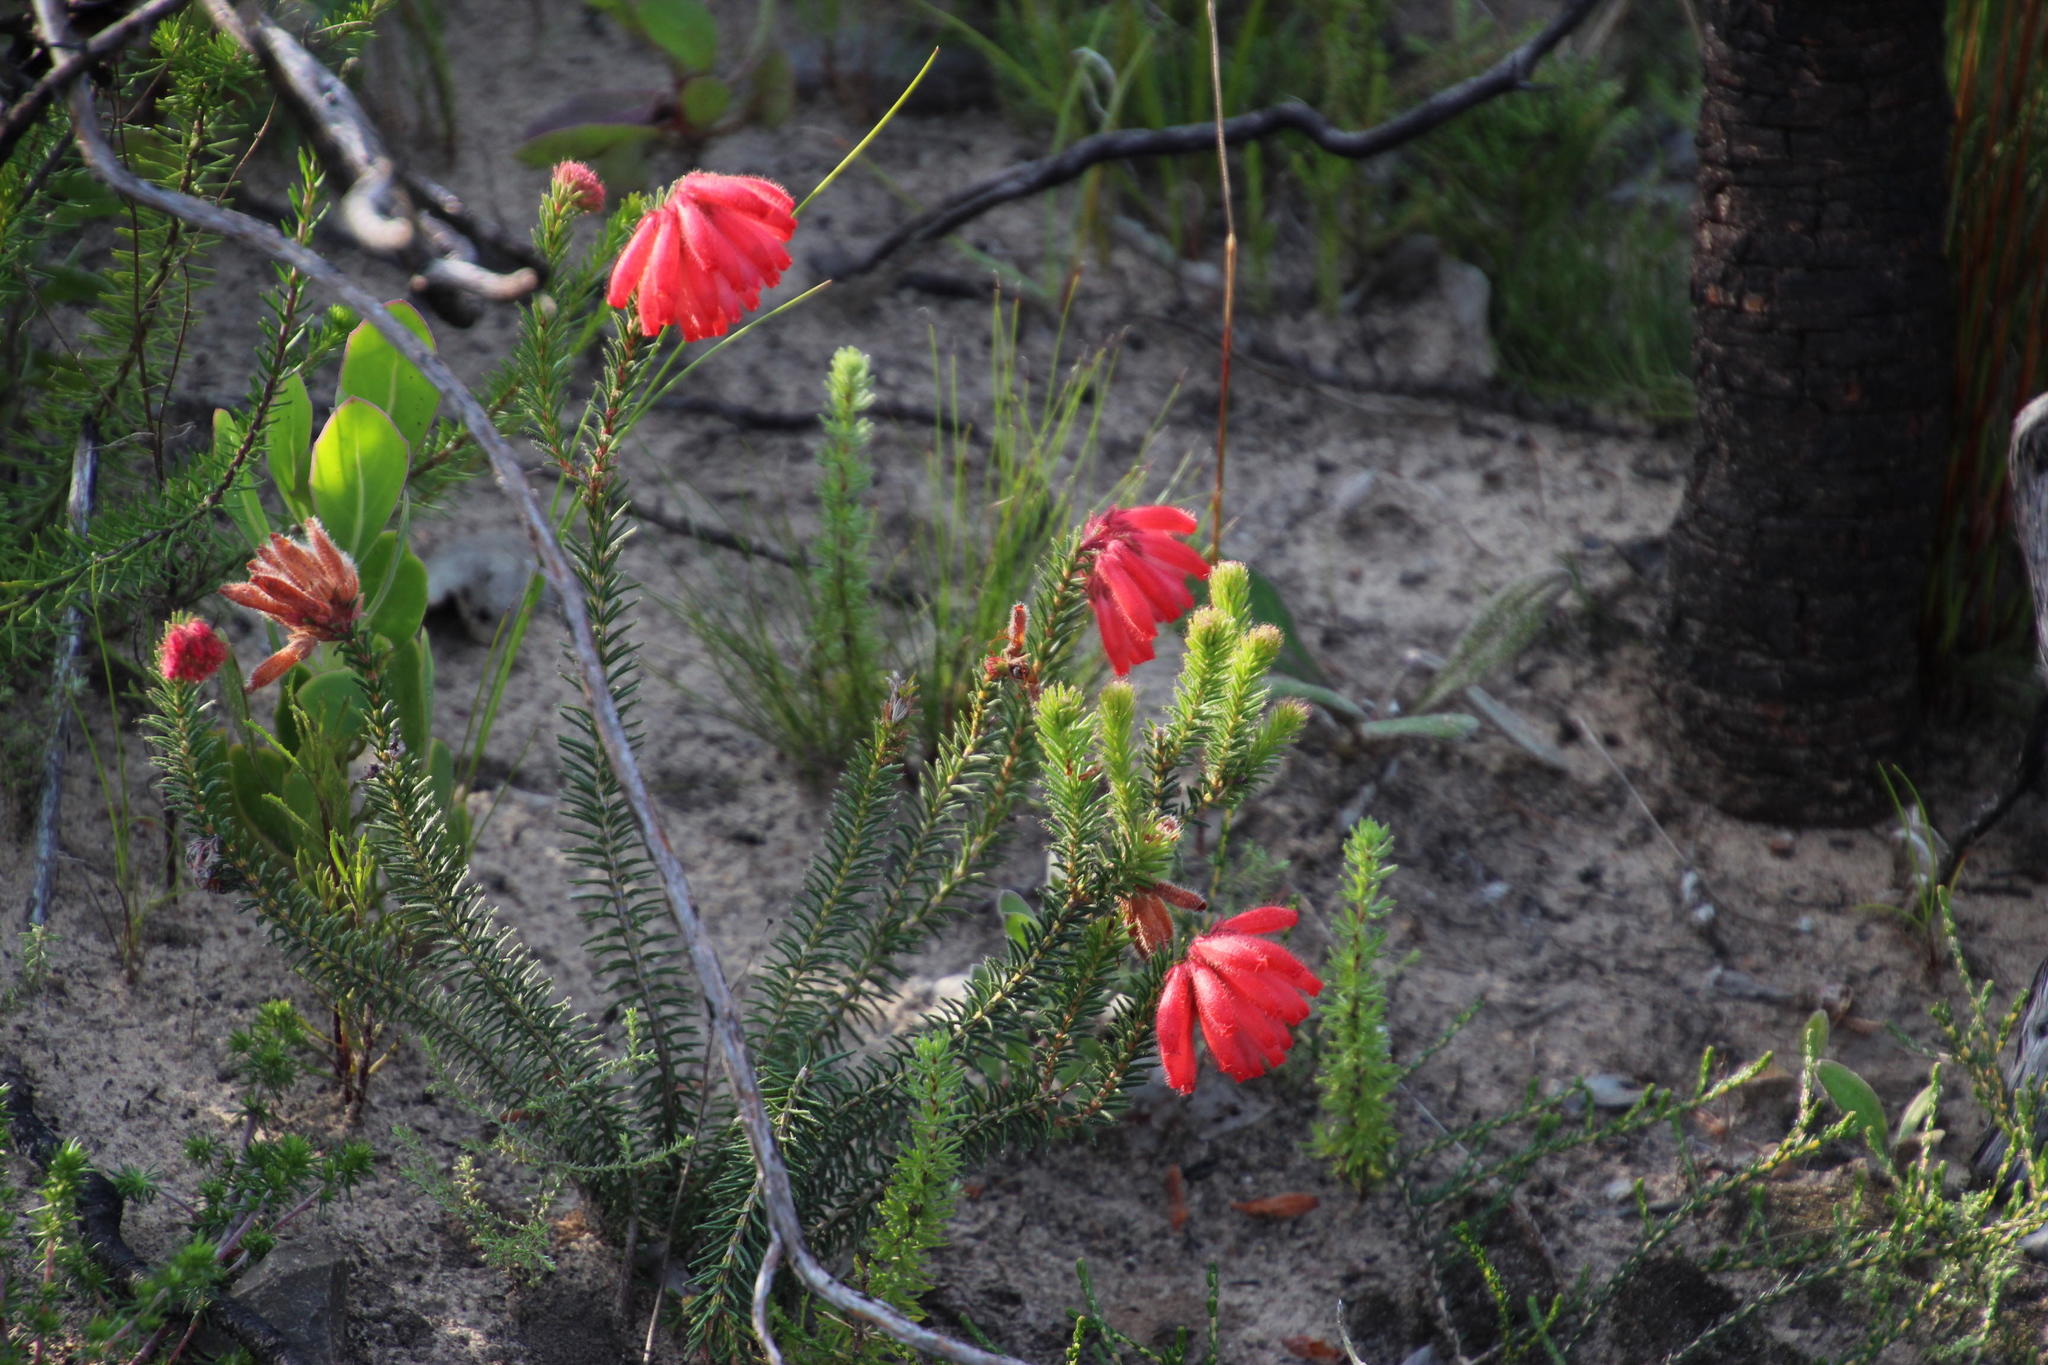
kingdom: Plantae
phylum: Tracheophyta
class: Magnoliopsida
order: Ericales
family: Ericaceae
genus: Erica
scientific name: Erica cerinthoides
